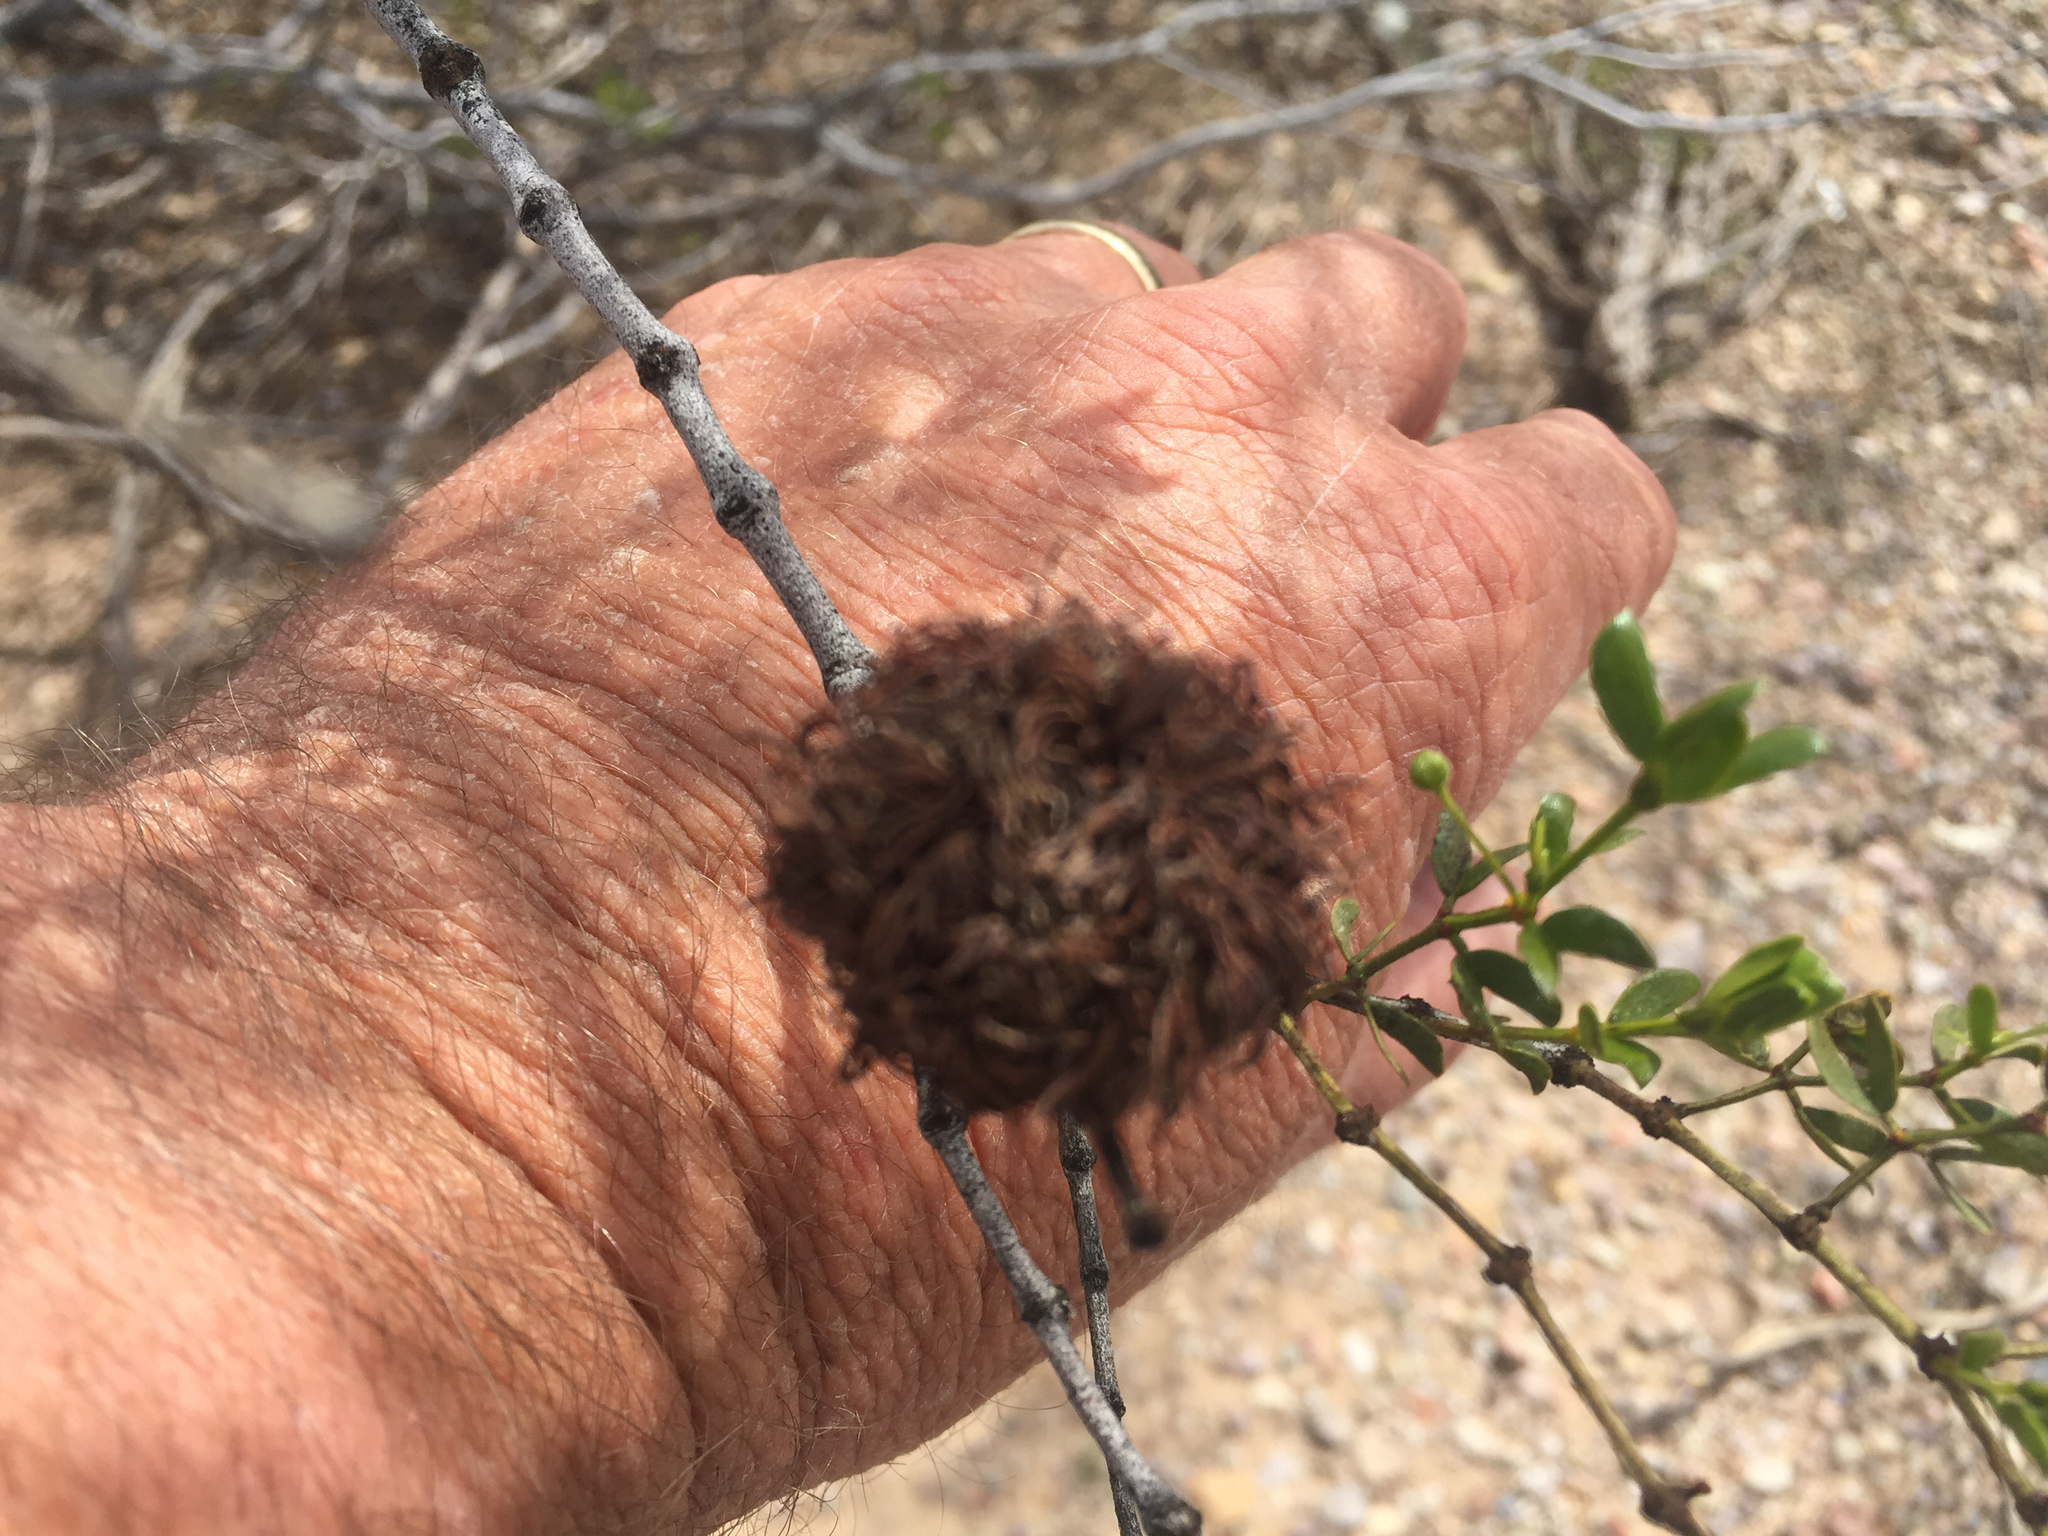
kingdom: Animalia
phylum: Arthropoda
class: Insecta
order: Diptera
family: Cecidomyiidae
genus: Asphondylia
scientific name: Asphondylia auripila
